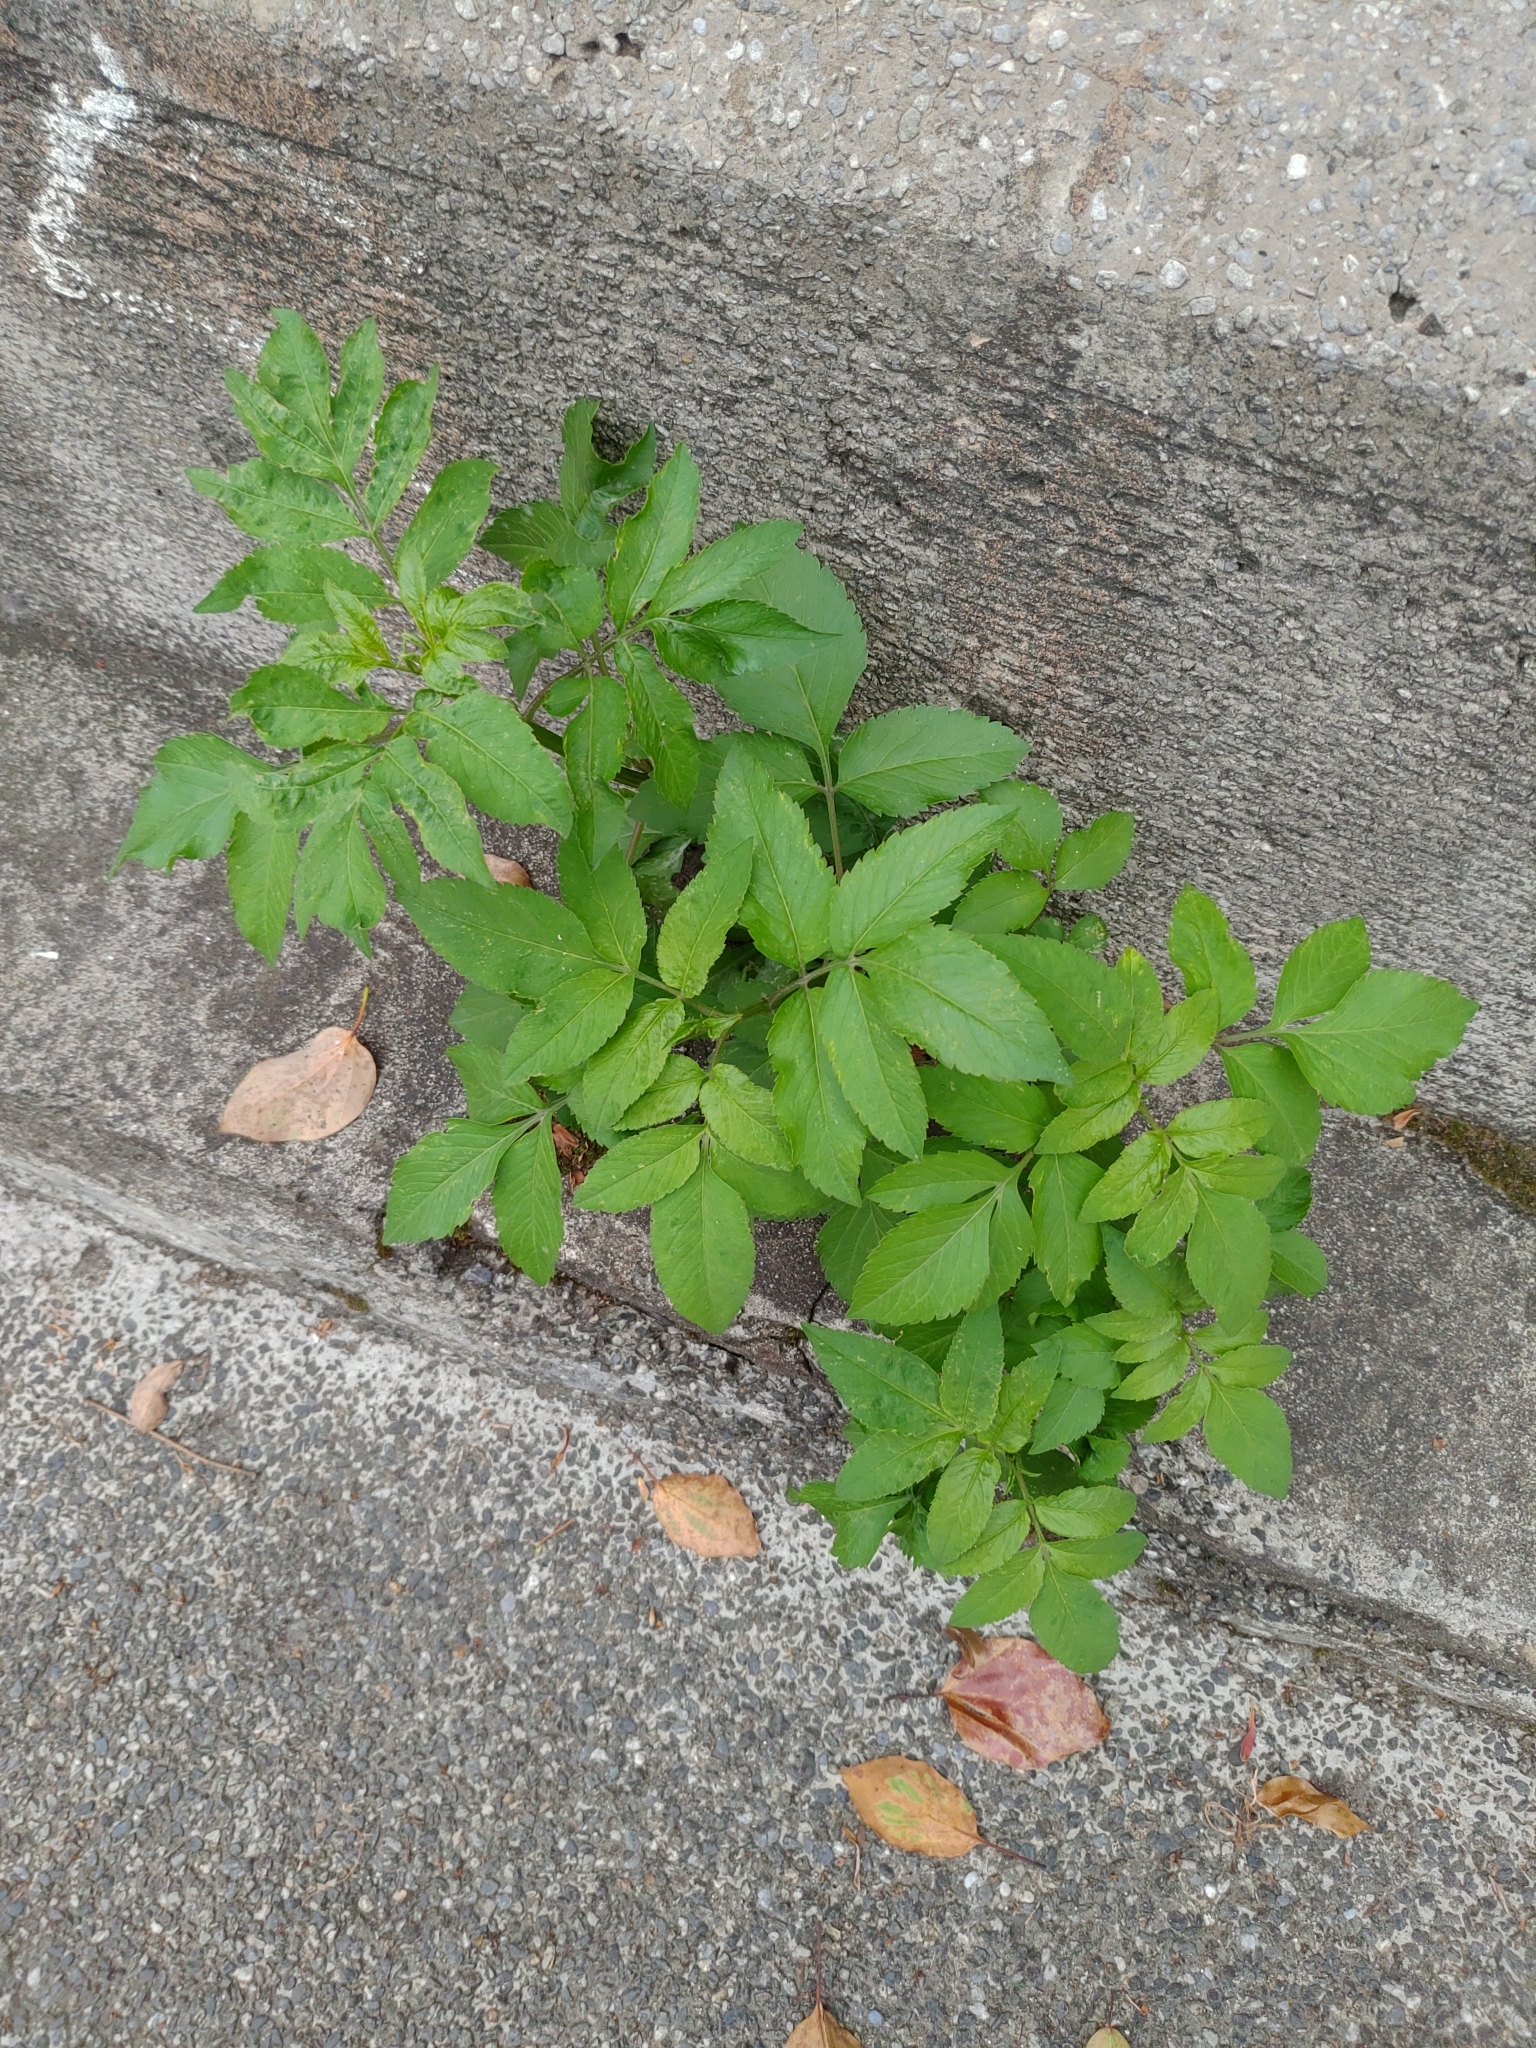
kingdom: Plantae
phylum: Tracheophyta
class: Magnoliopsida
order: Asterales
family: Asteraceae
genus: Bidens
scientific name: Bidens alba
